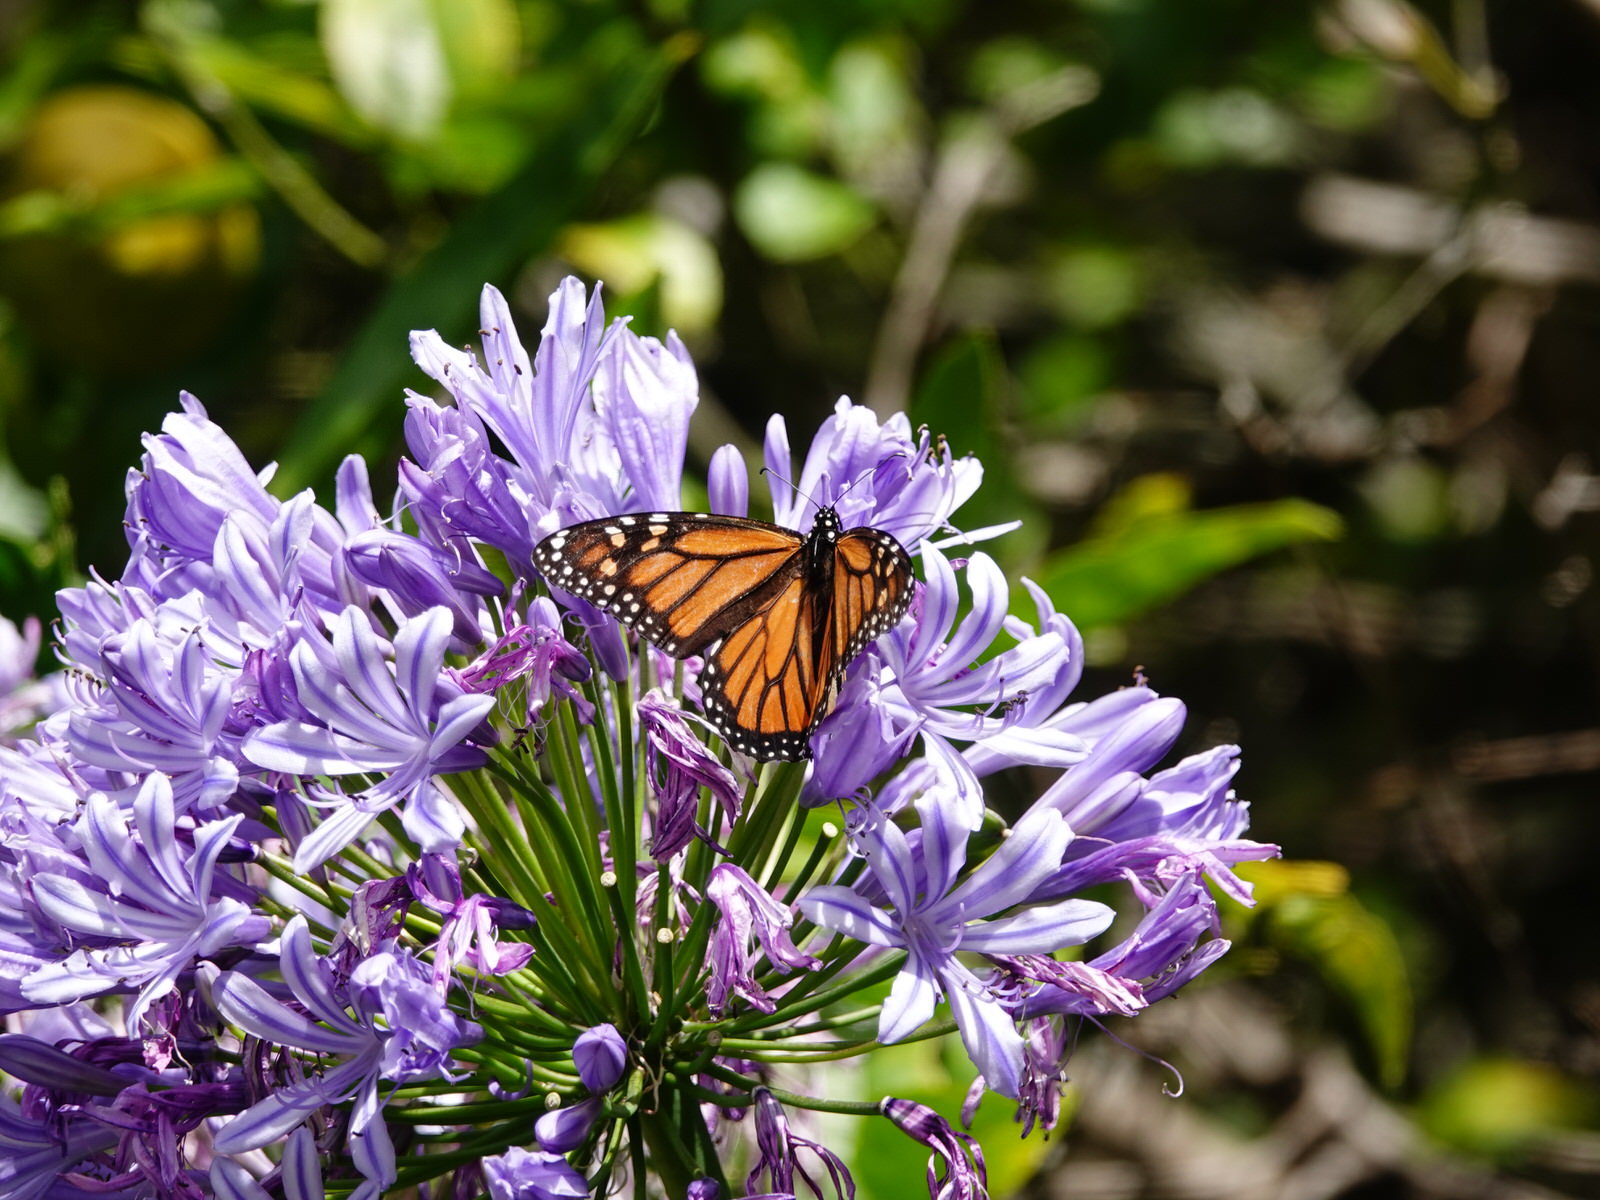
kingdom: Animalia
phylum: Arthropoda
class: Insecta
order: Lepidoptera
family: Nymphalidae
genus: Danaus
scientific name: Danaus plexippus
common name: Monarch
